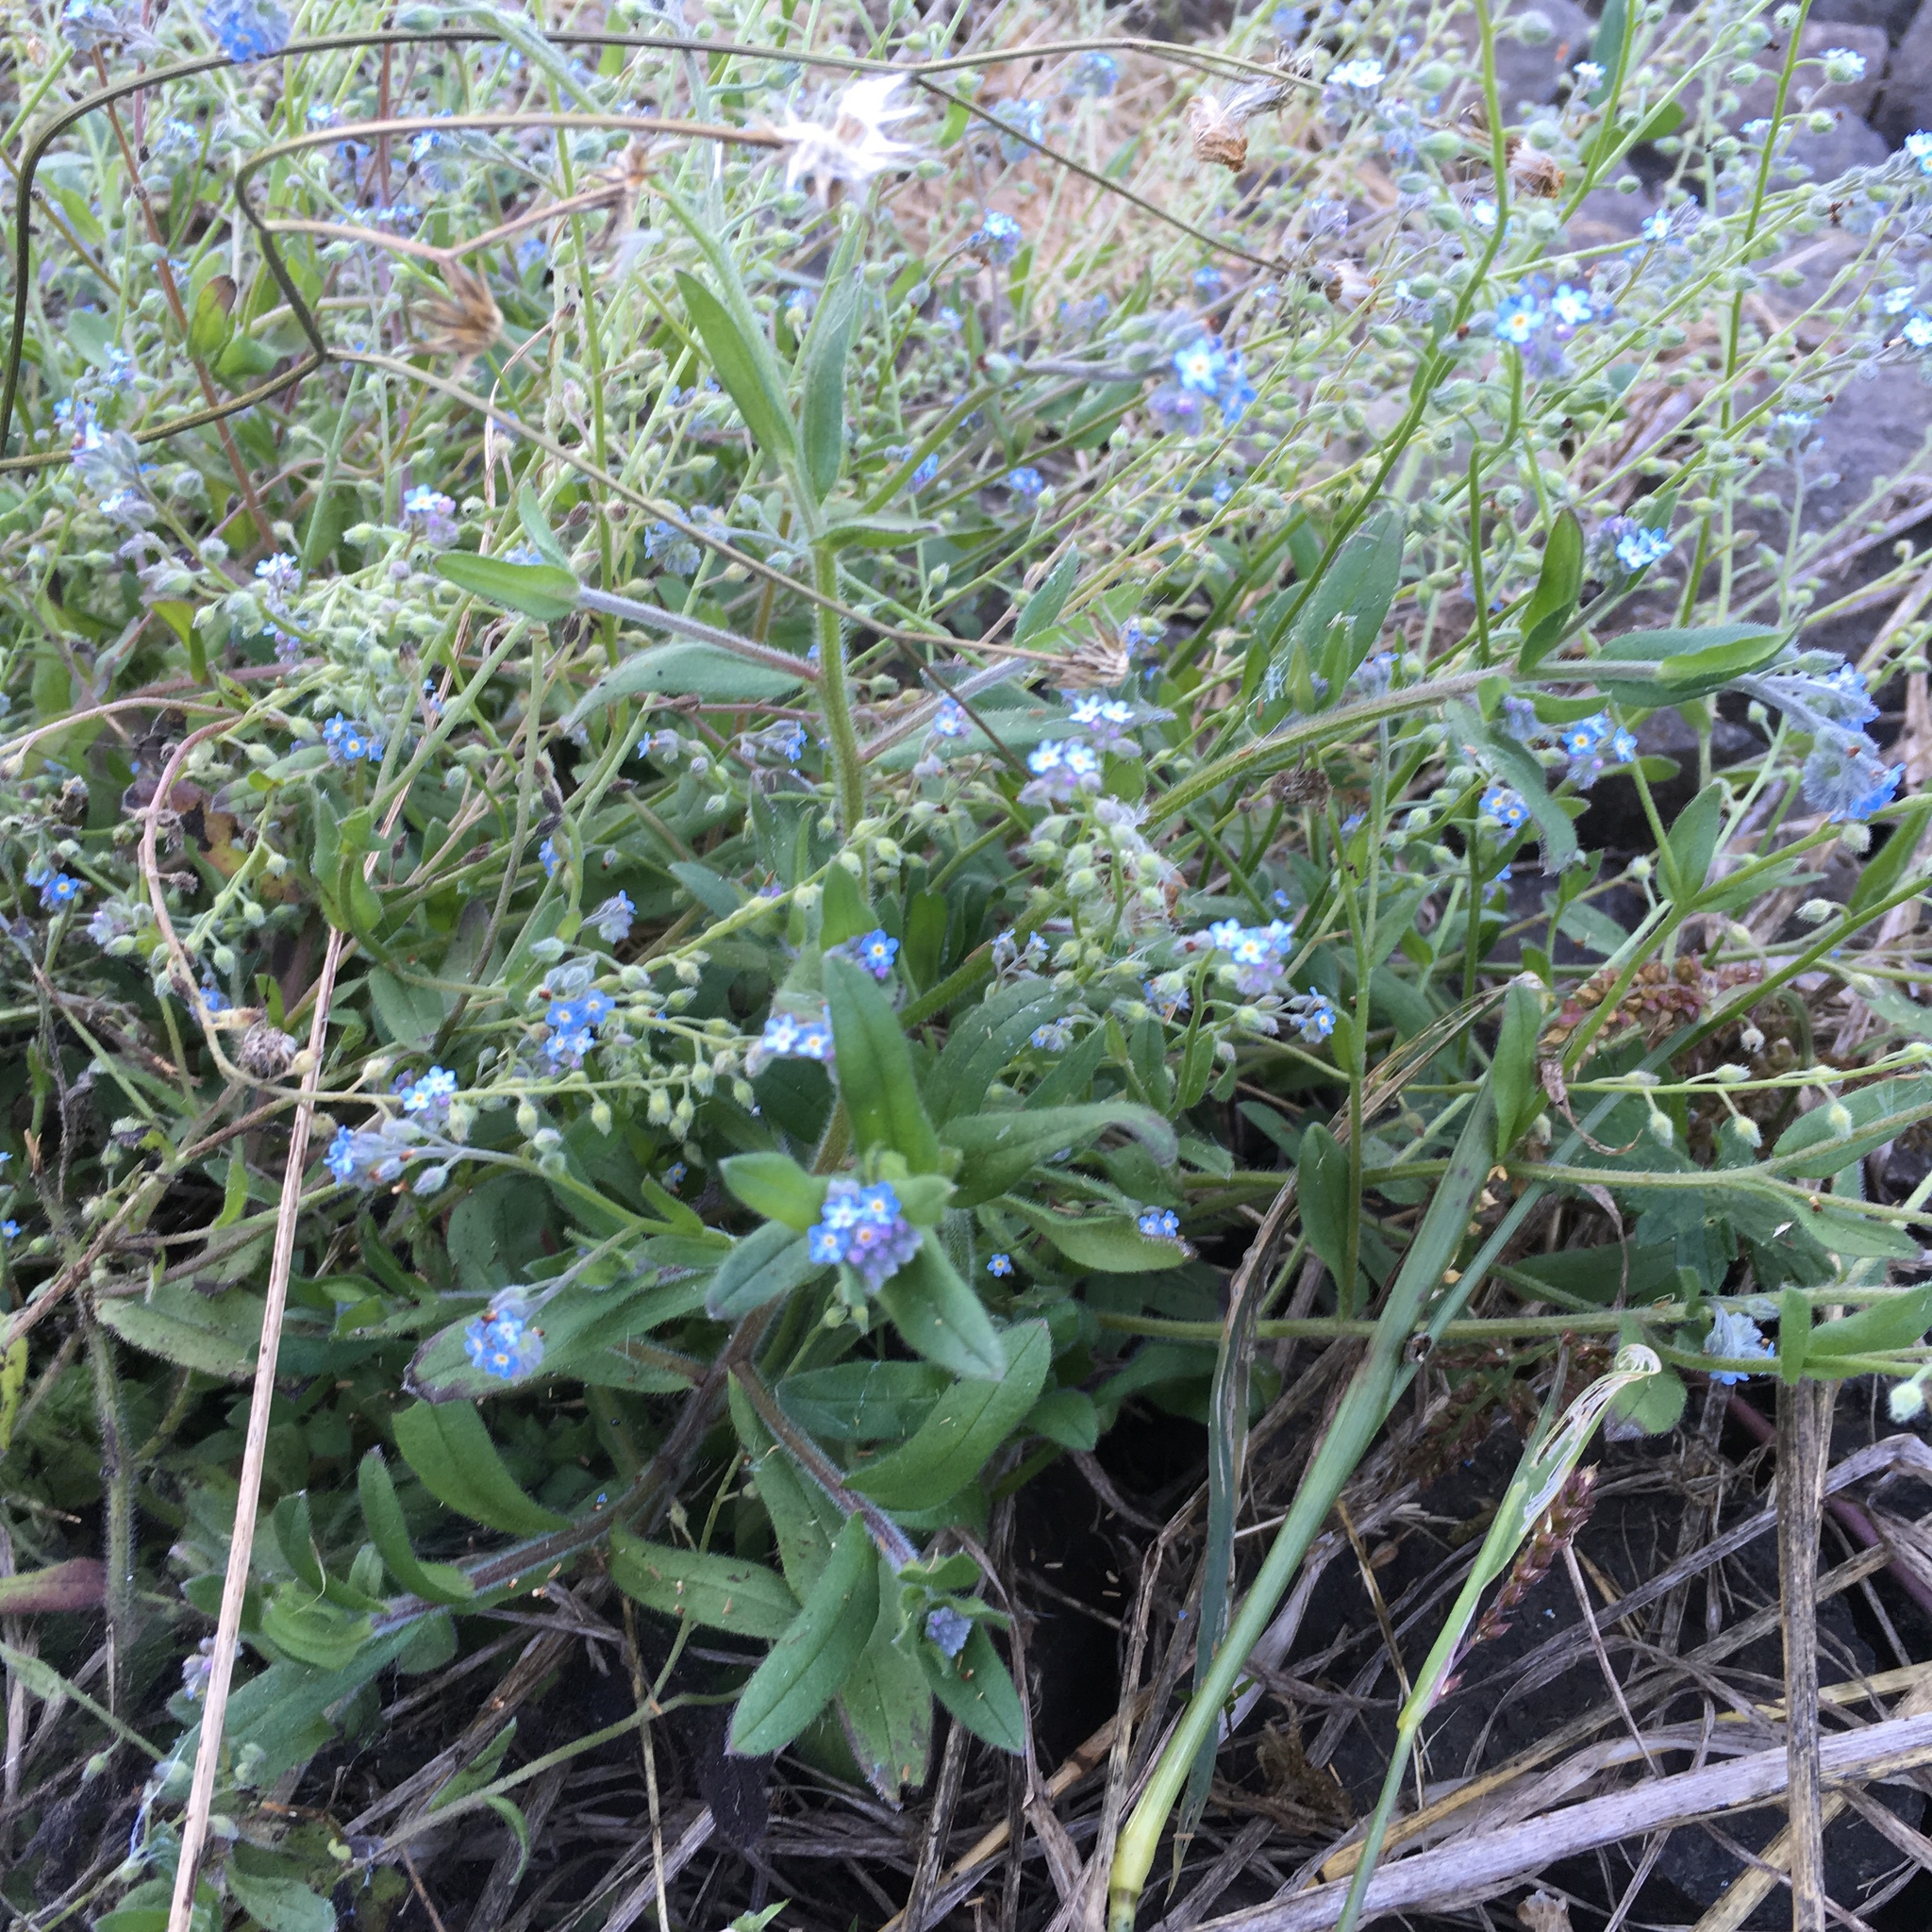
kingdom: Plantae
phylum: Tracheophyta
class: Magnoliopsida
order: Boraginales
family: Boraginaceae
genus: Myosotis
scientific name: Myosotis sylvatica
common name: Wood forget-me-not
